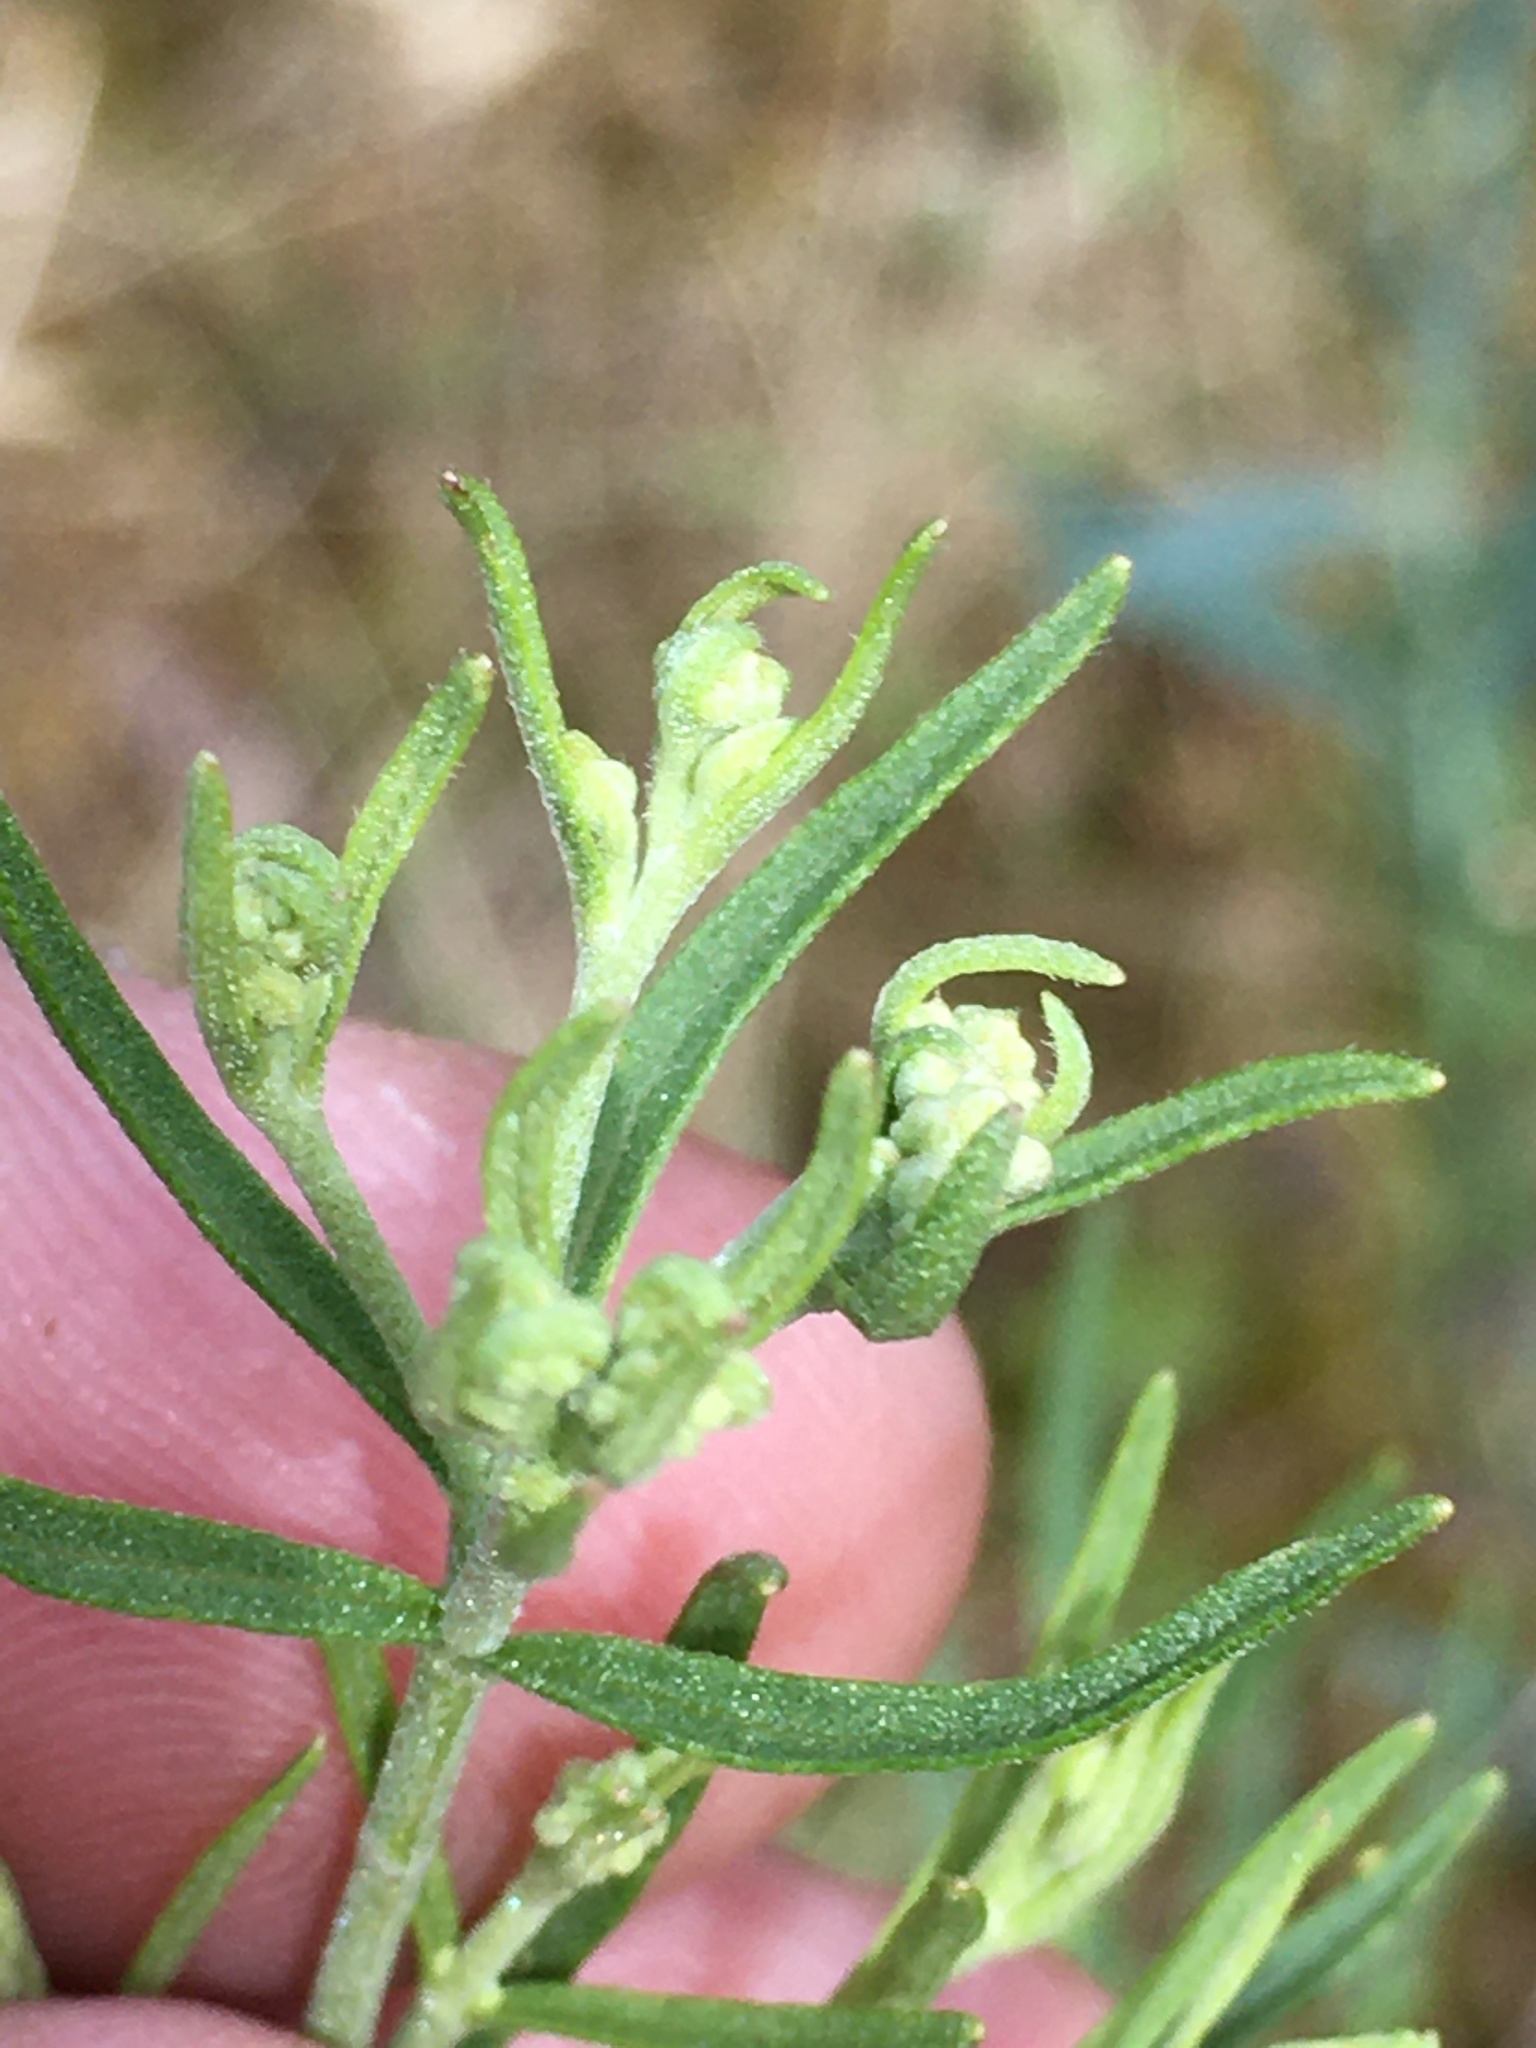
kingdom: Plantae
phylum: Tracheophyta
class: Magnoliopsida
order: Asterales
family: Asteraceae
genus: Eupatorium
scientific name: Eupatorium hyssopifolium
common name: Hyssop-leaf thoroughwort
